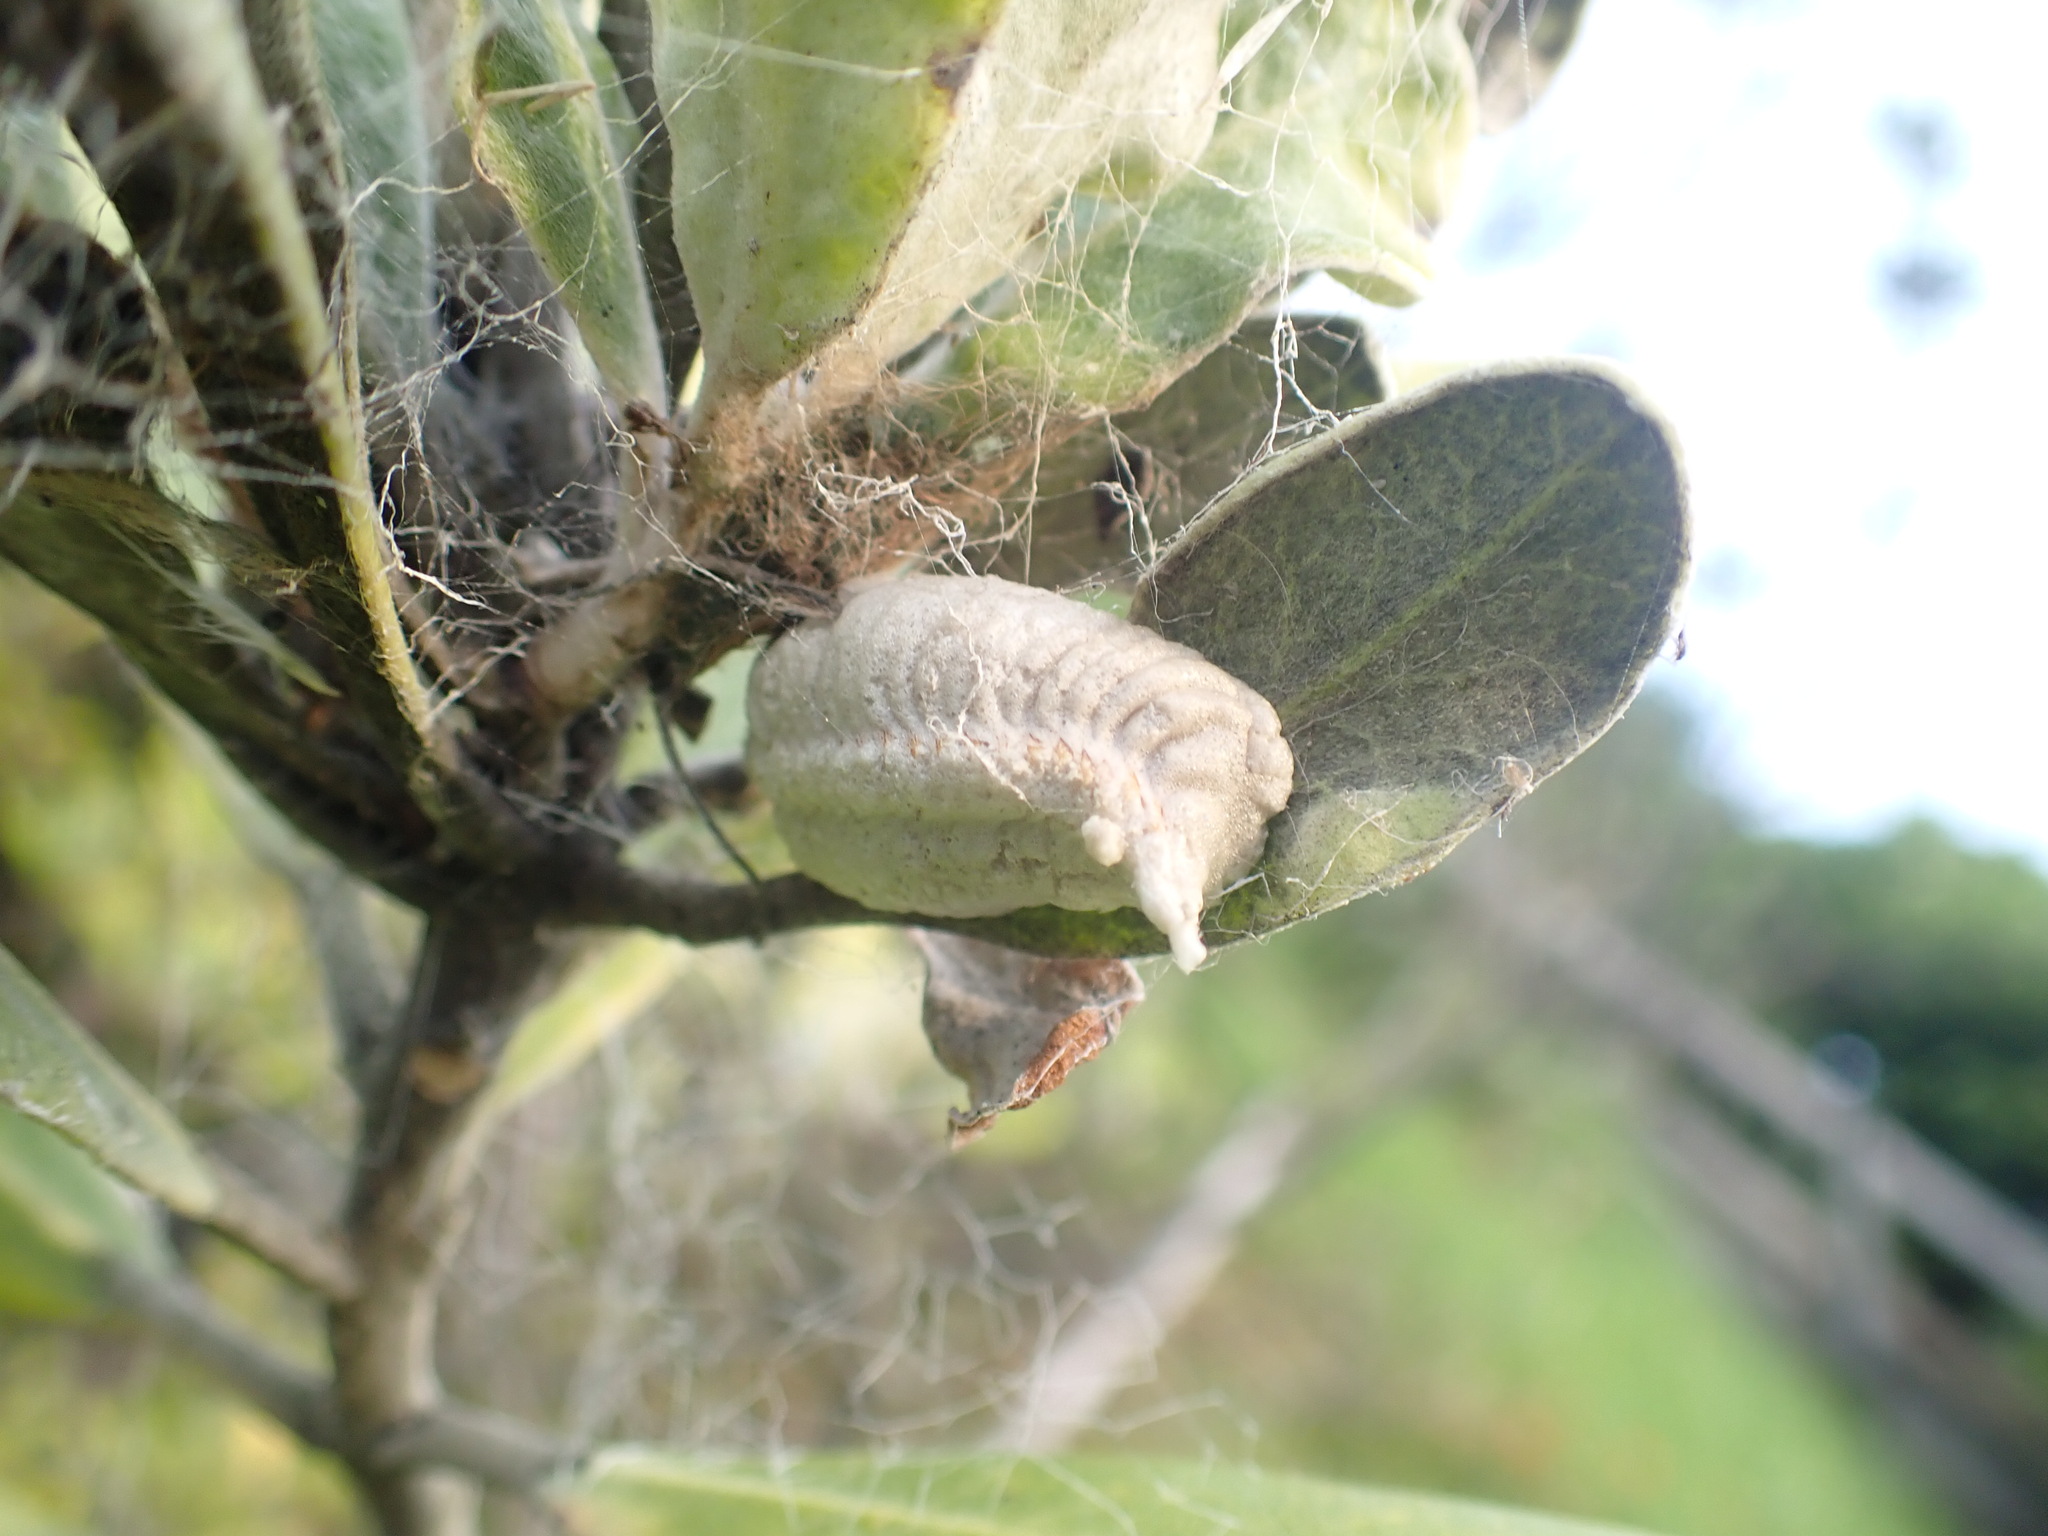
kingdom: Animalia
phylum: Arthropoda
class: Insecta
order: Mantodea
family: Miomantidae
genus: Miomantis
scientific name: Miomantis caffra
